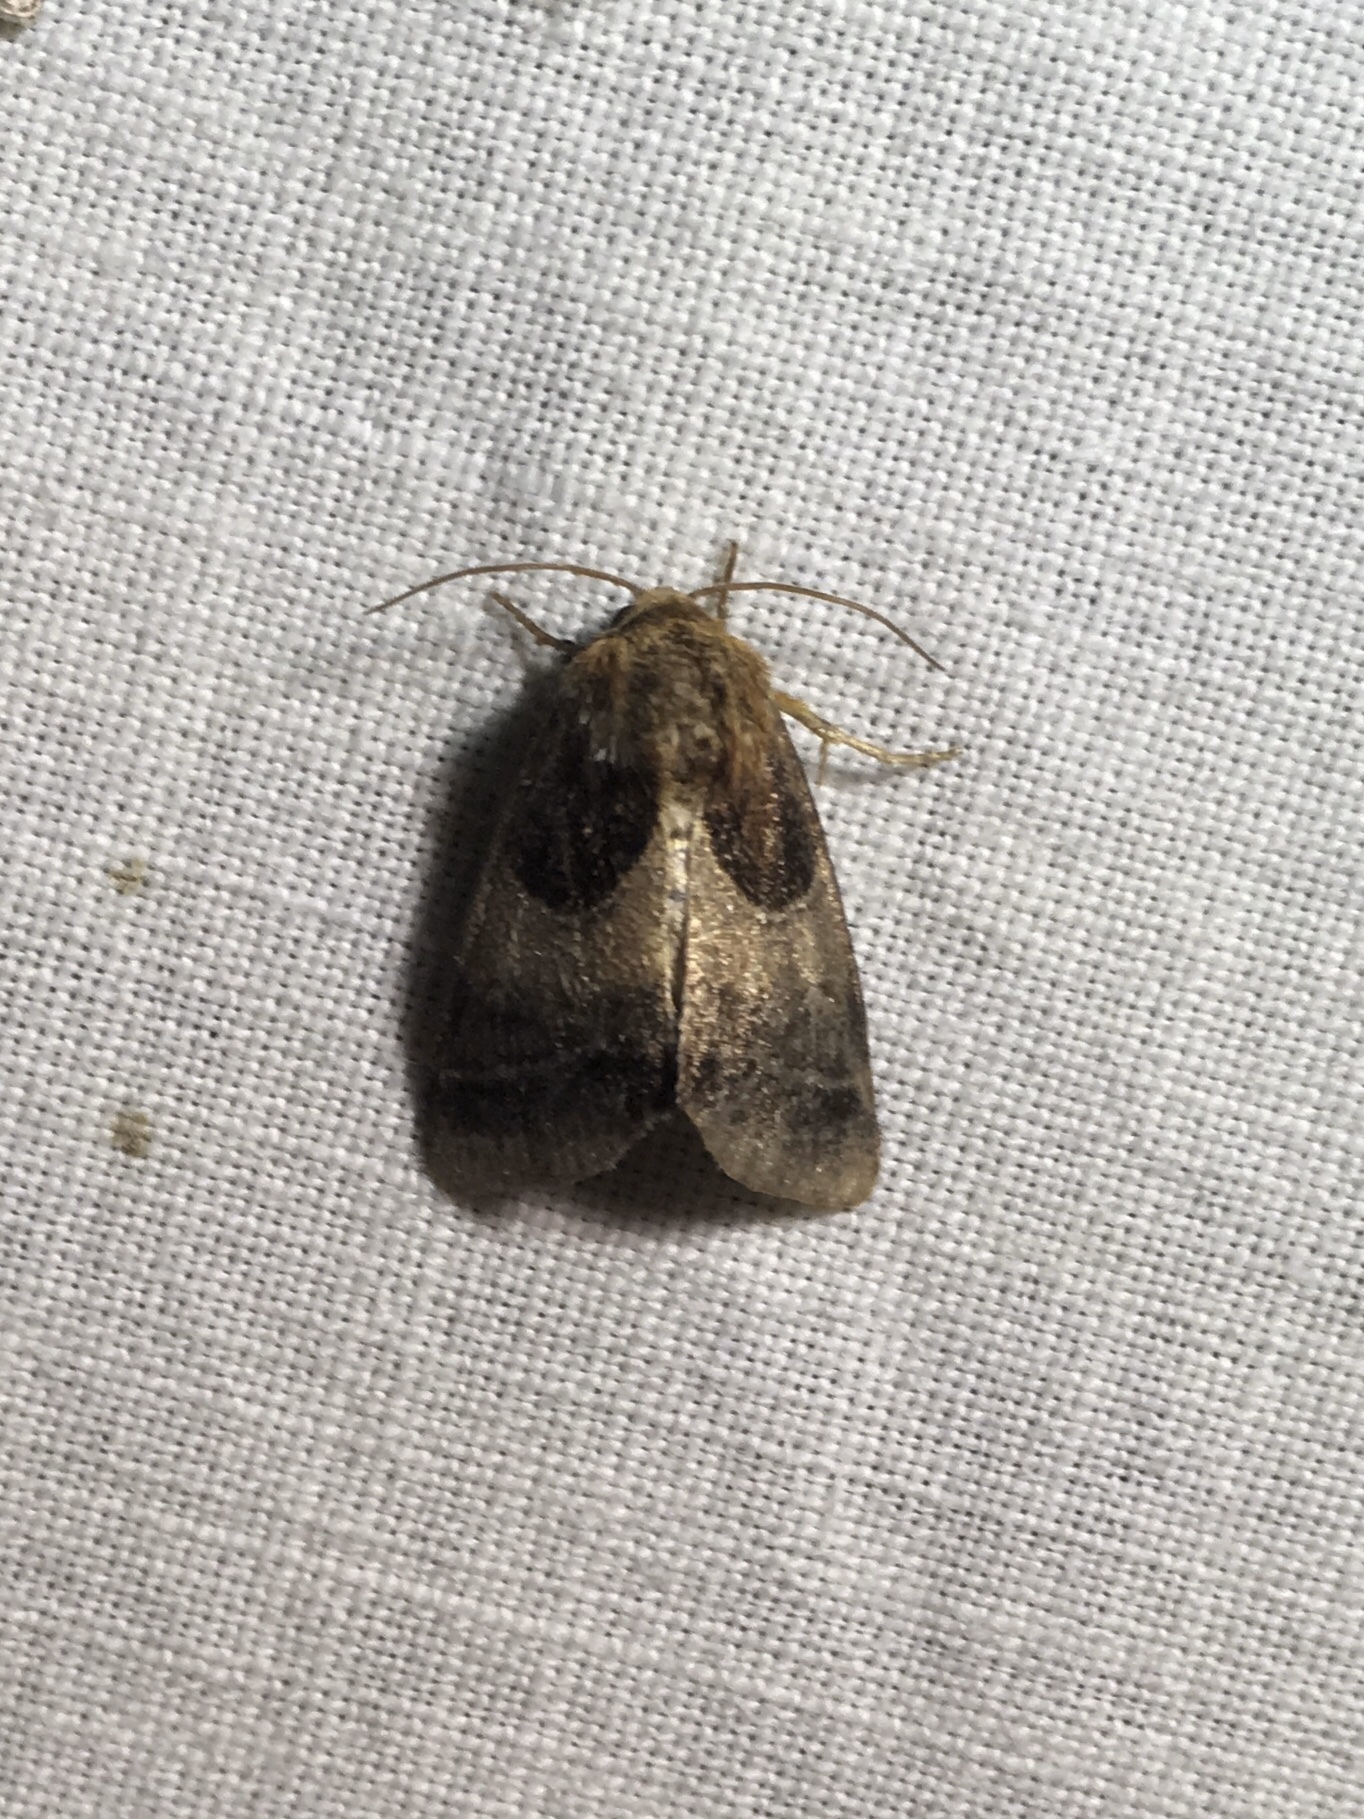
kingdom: Animalia
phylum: Arthropoda
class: Insecta
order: Lepidoptera
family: Noctuidae
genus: Schinia
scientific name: Schinia arcigera
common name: Arcigera flower moth
